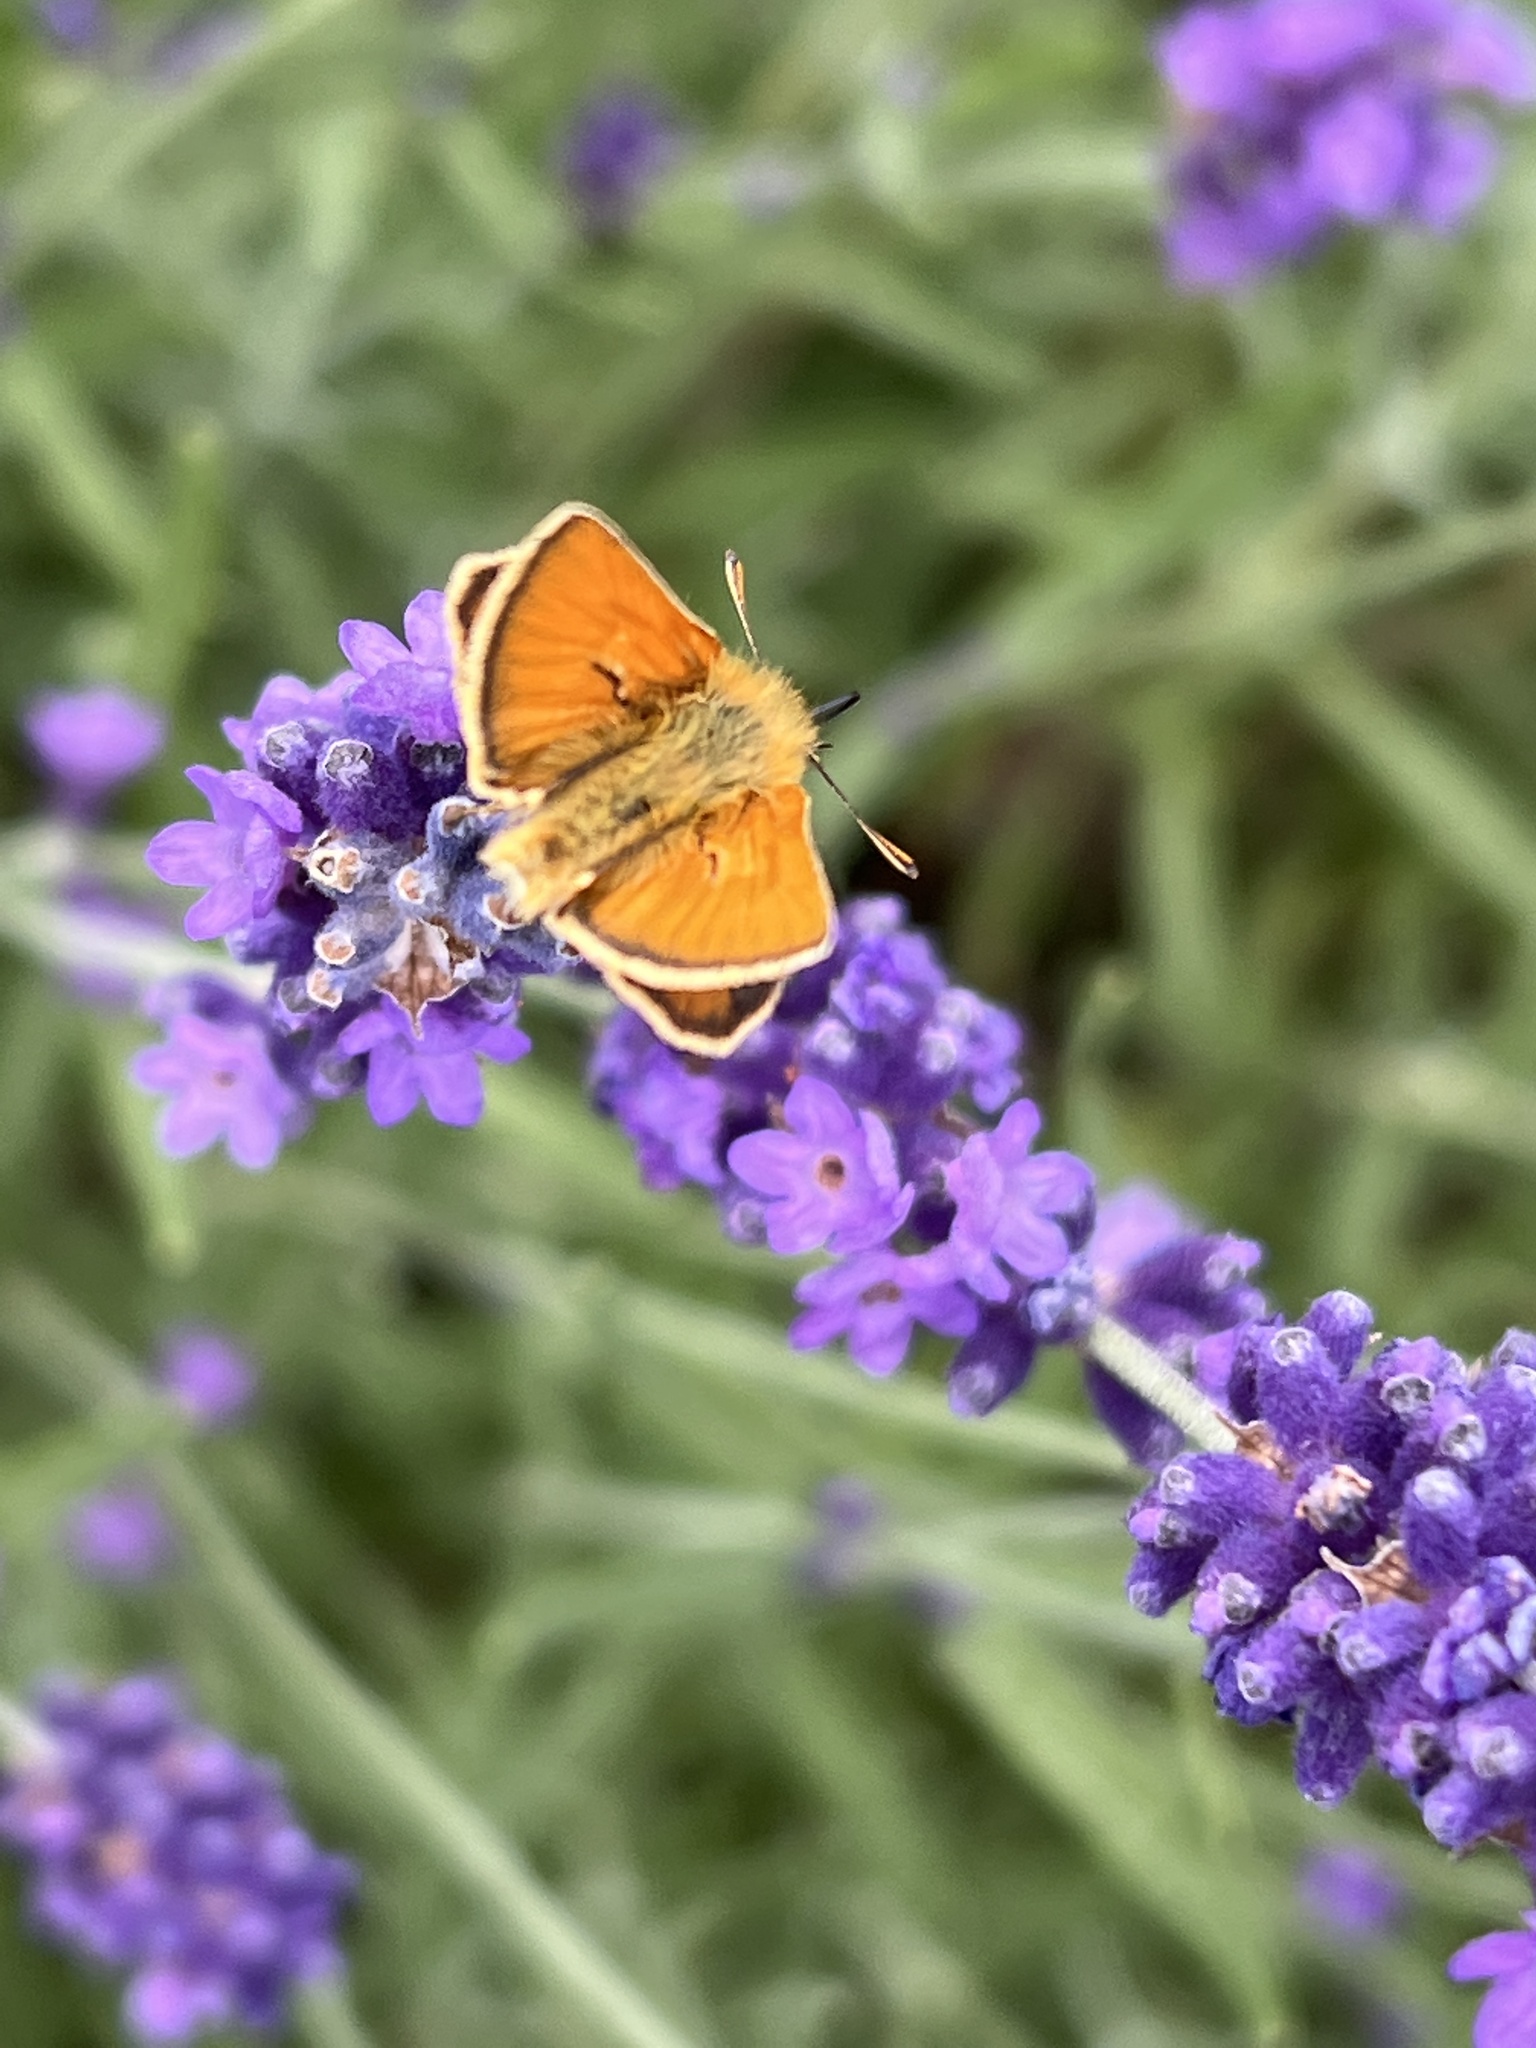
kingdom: Animalia
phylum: Arthropoda
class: Insecta
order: Lepidoptera
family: Hesperiidae
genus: Thymelicus
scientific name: Thymelicus sylvestris
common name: Small skipper
